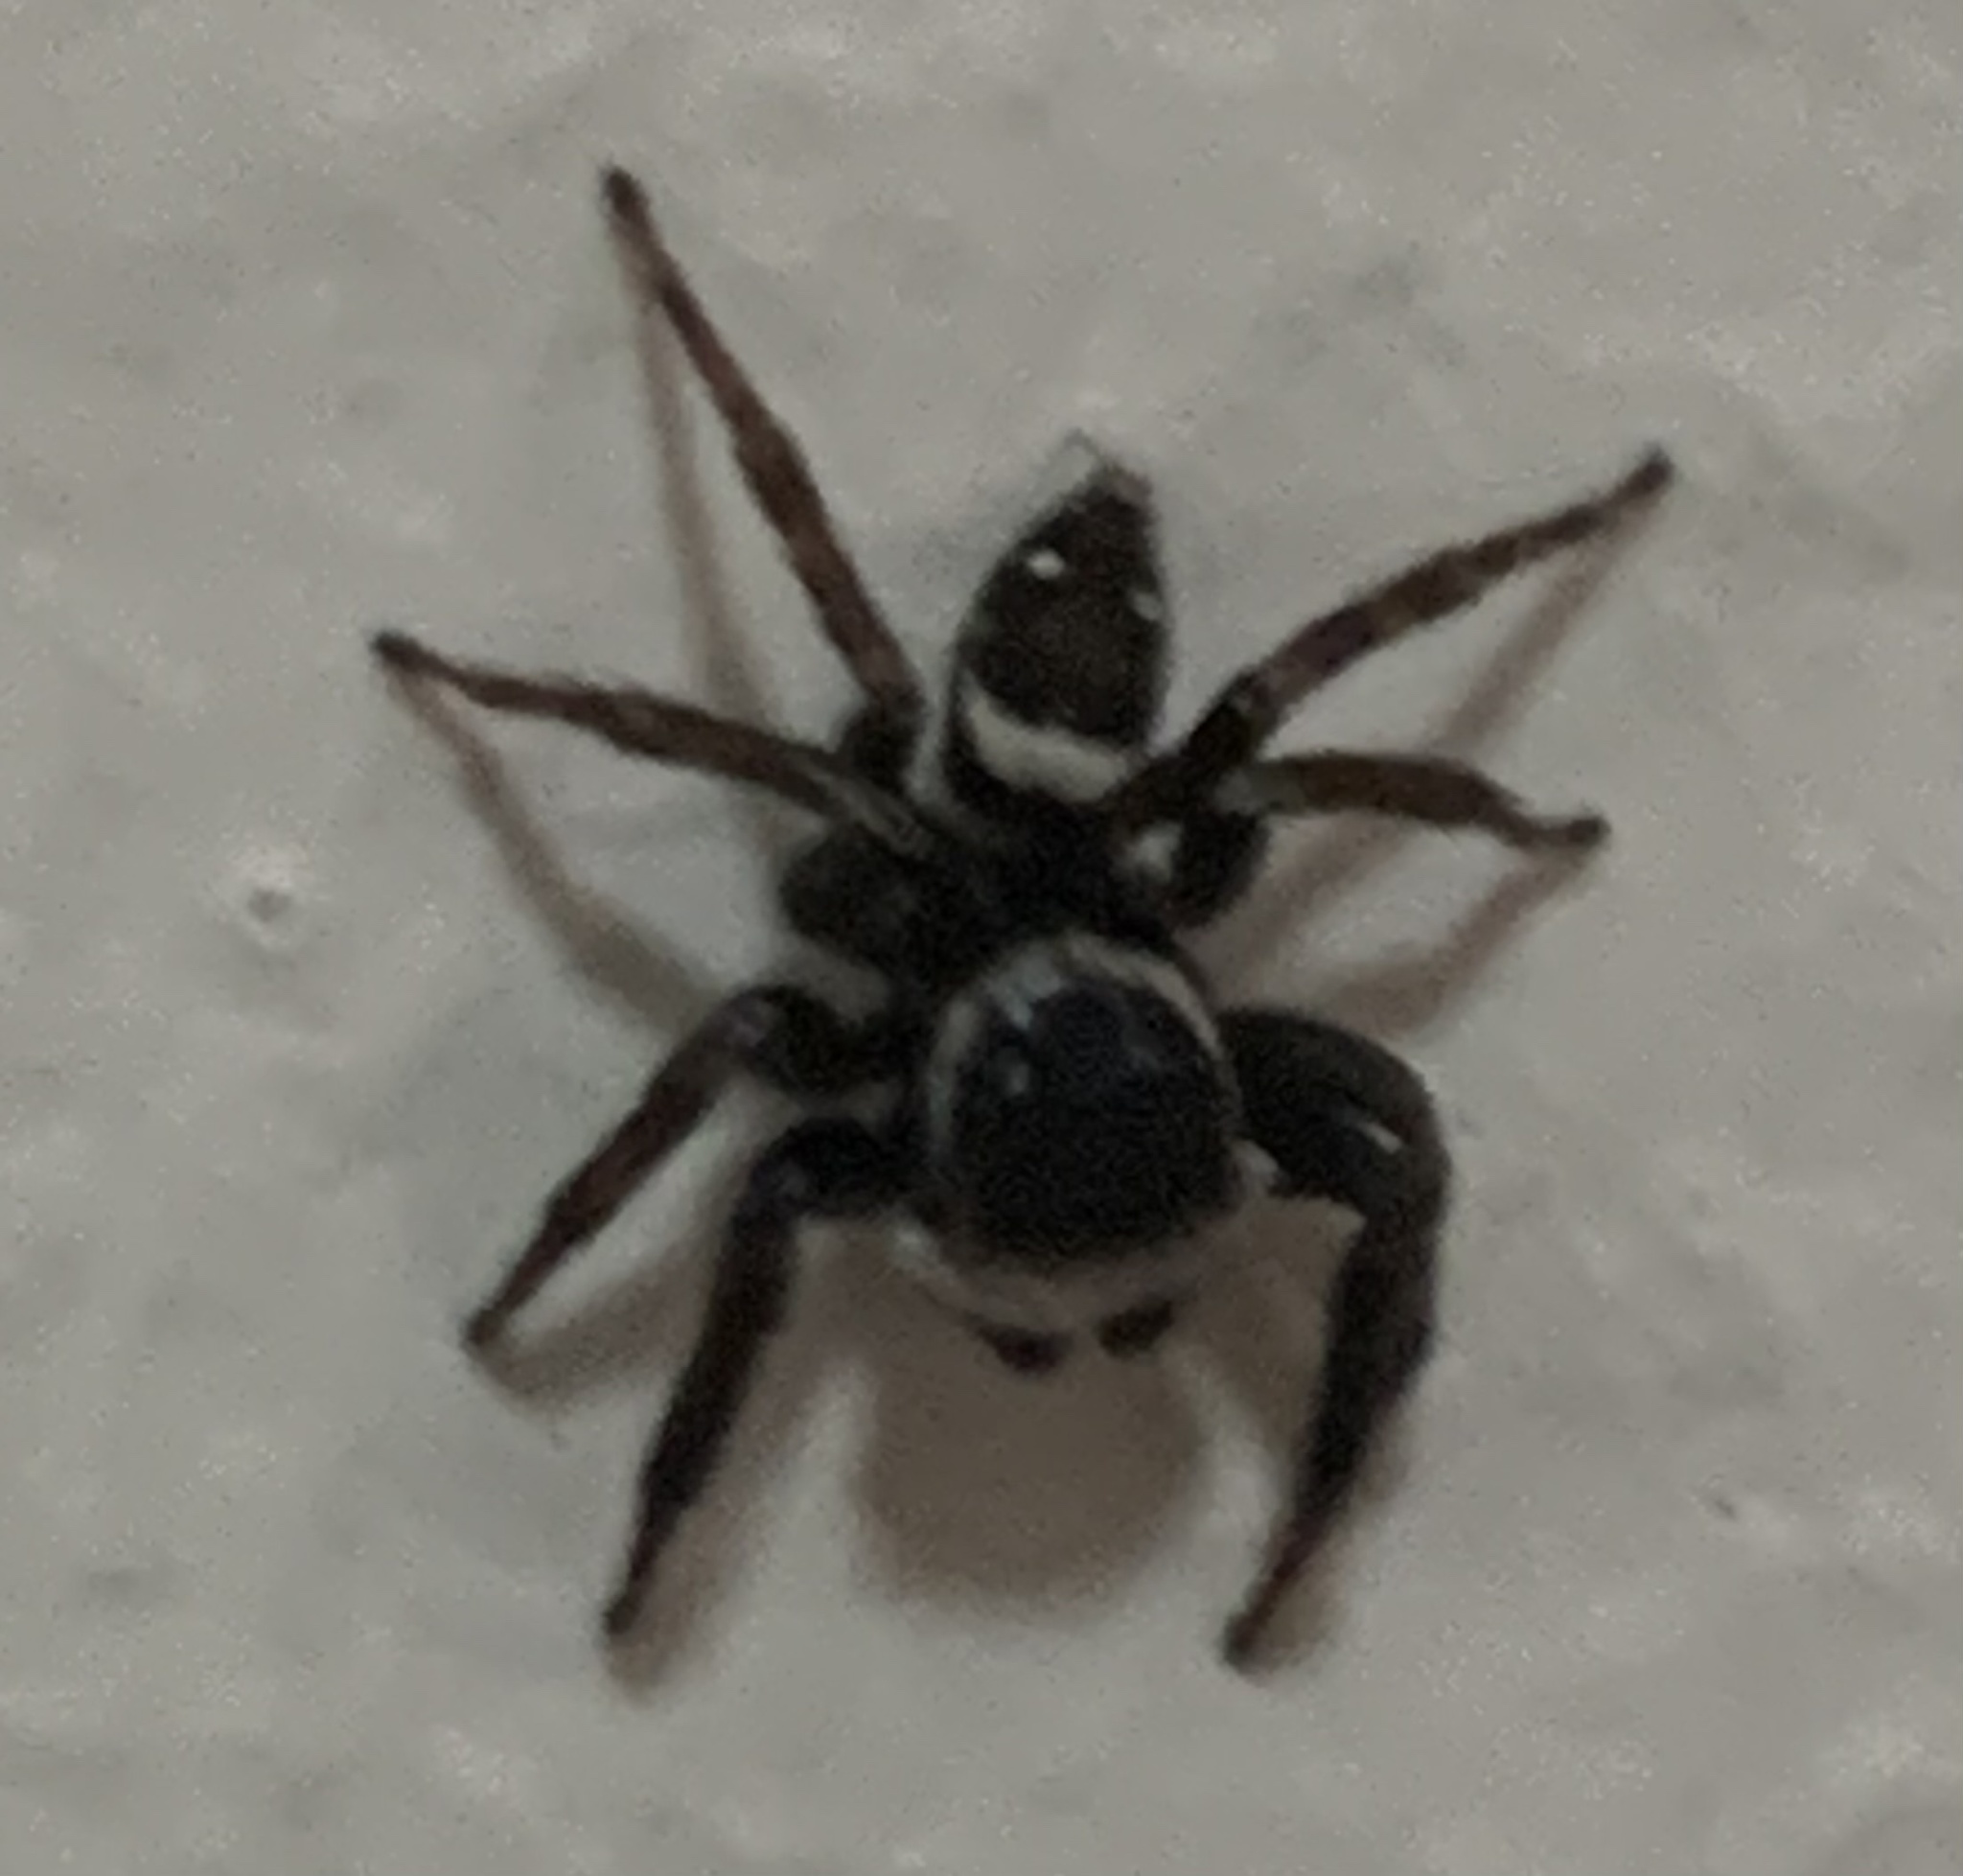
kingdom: Animalia
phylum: Arthropoda
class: Arachnida
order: Araneae
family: Salticidae
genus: Hasarius
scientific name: Hasarius adansoni
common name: Jumping spider
